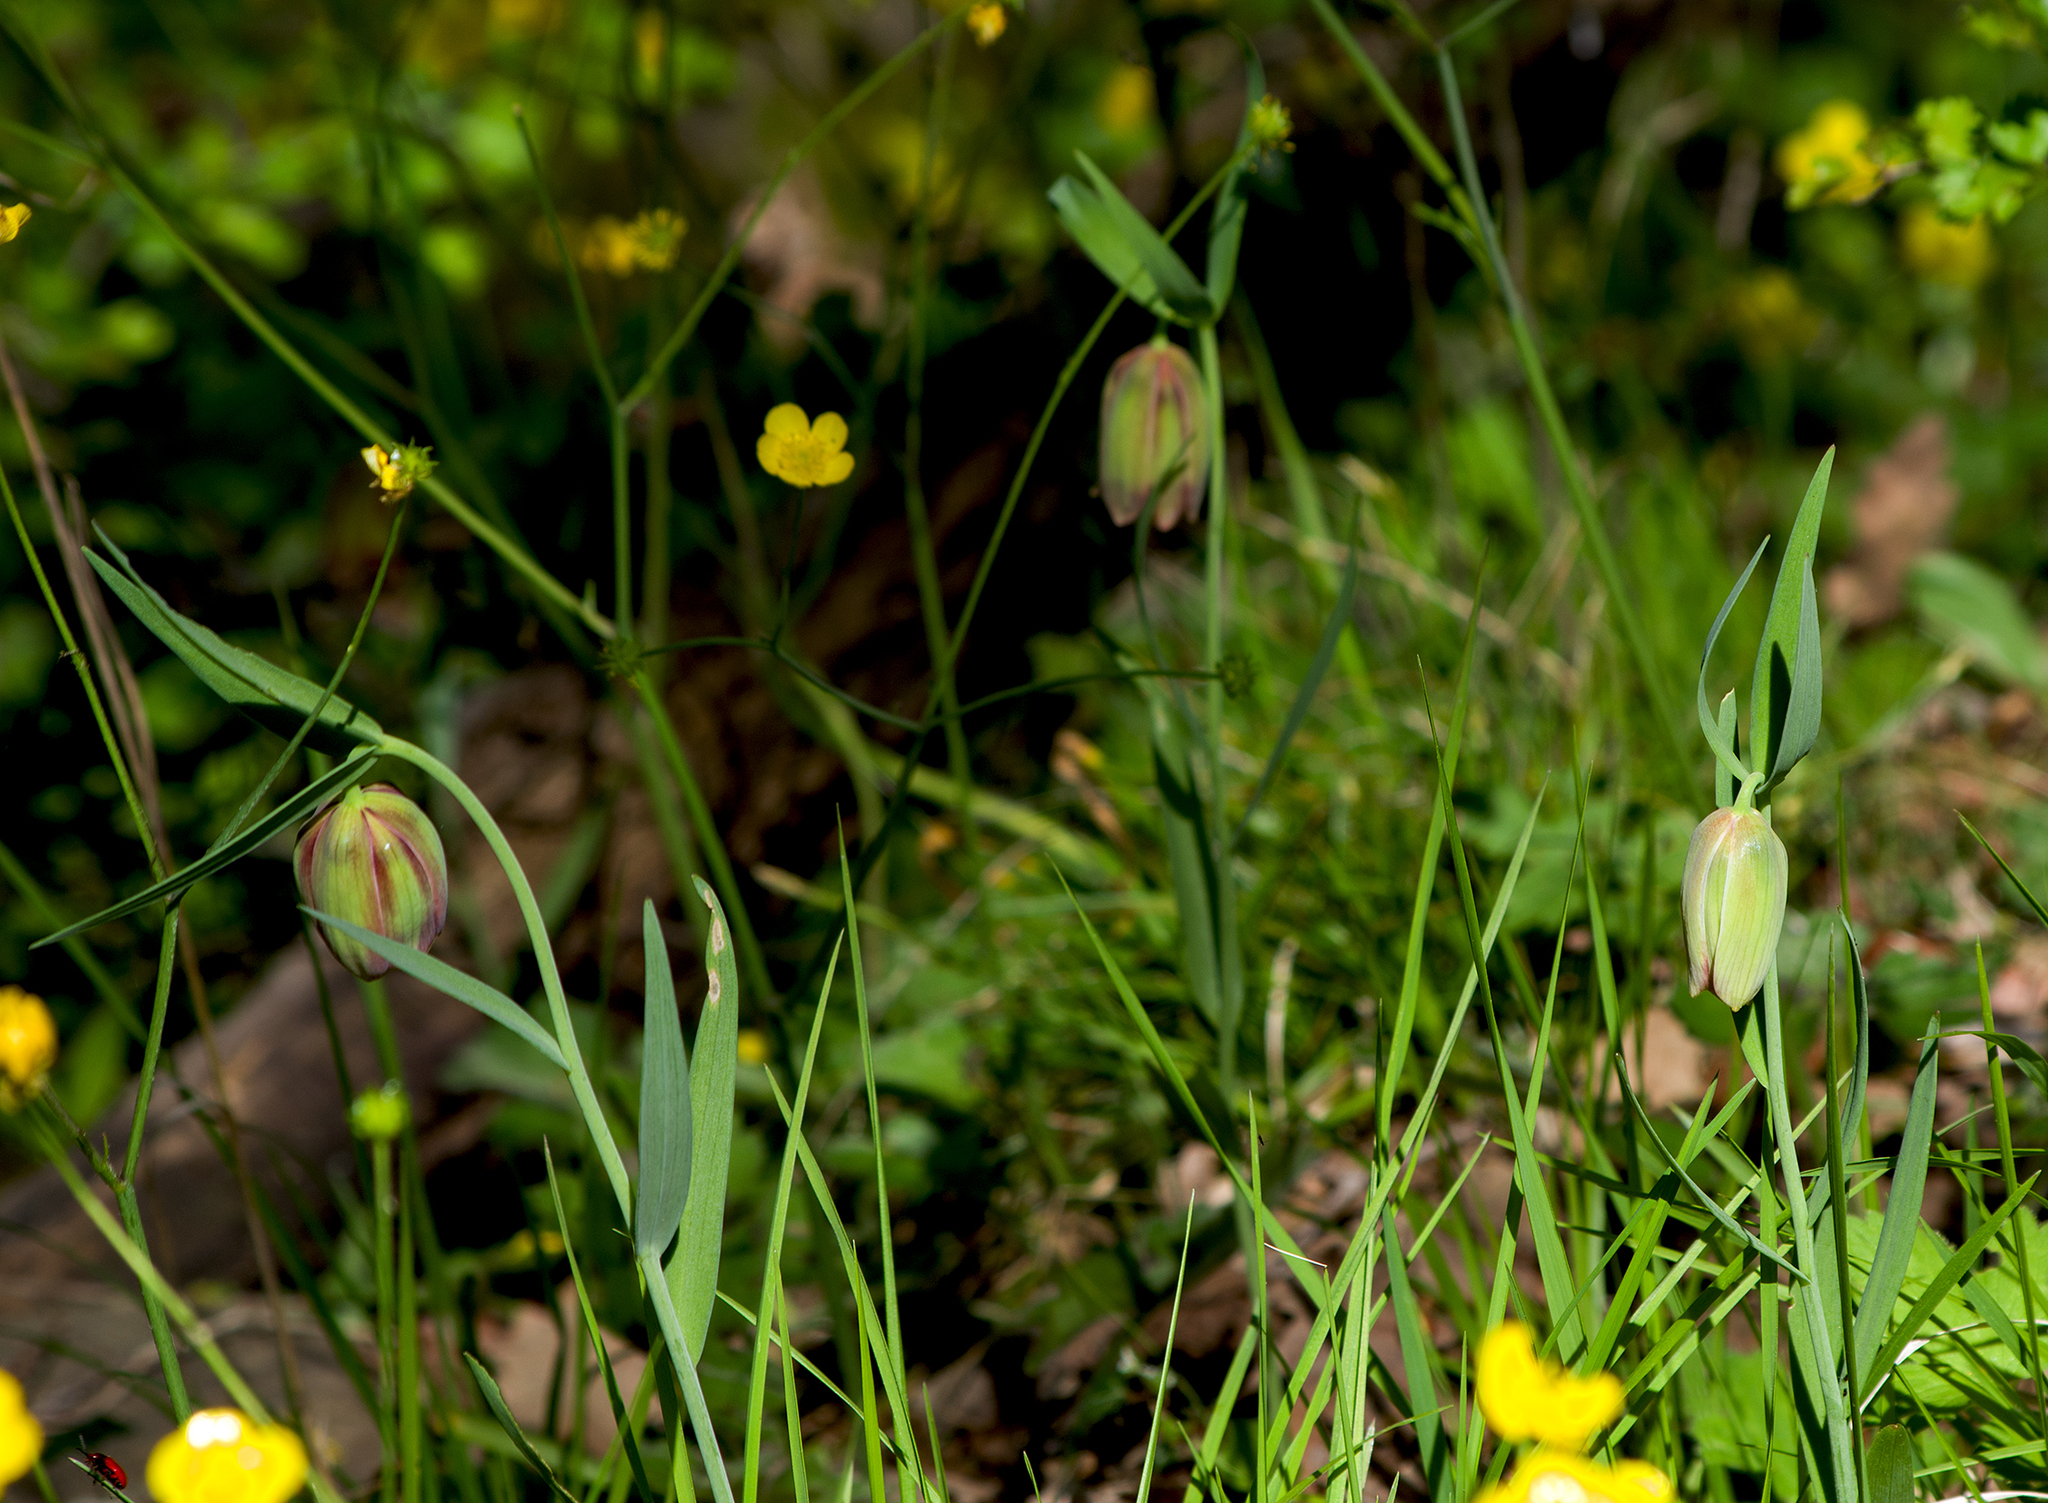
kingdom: Plantae
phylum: Tracheophyta
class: Liliopsida
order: Liliales
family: Liliaceae
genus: Fritillaria
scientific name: Fritillaria pontica
